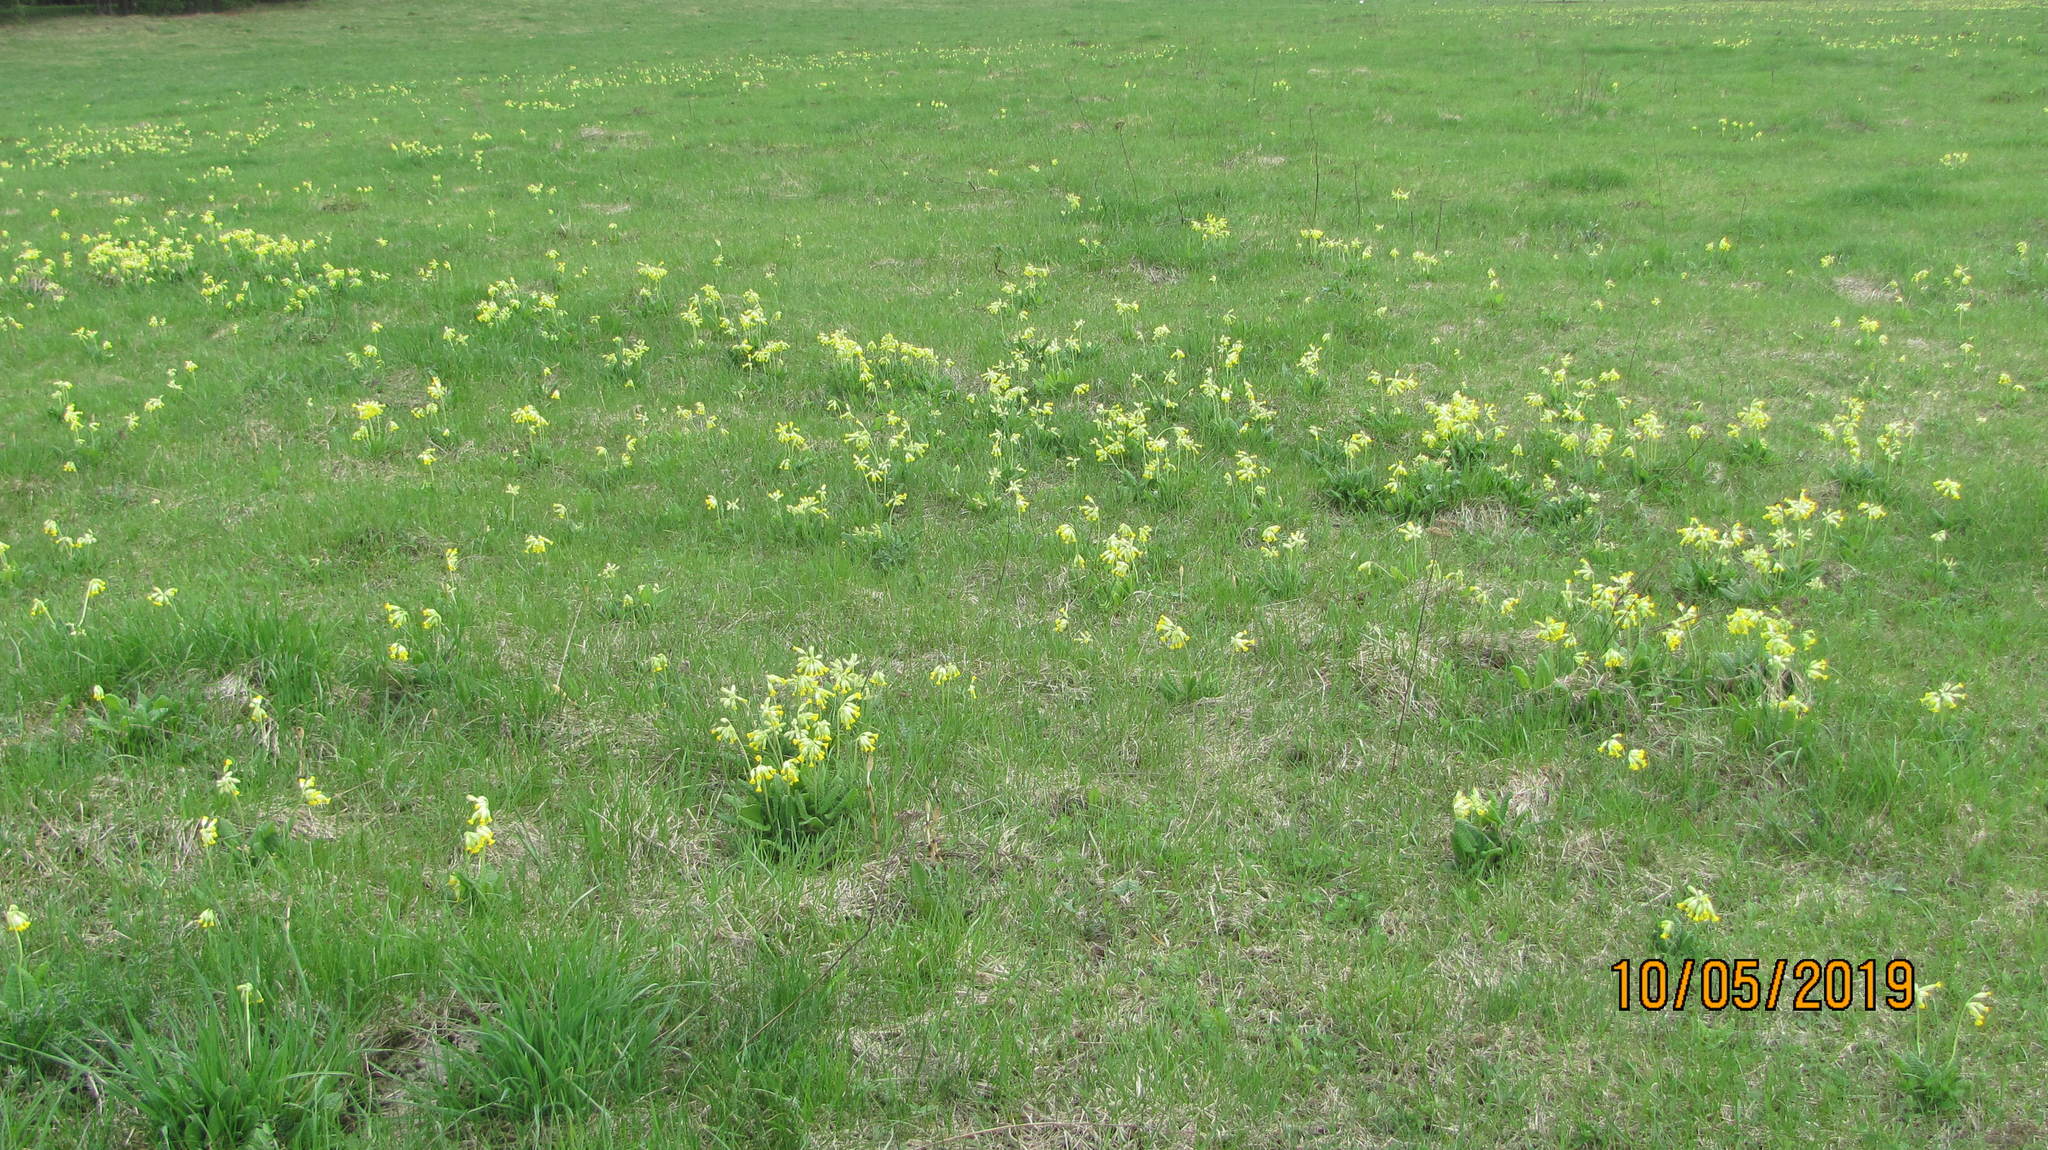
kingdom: Plantae
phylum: Tracheophyta
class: Magnoliopsida
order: Ericales
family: Primulaceae
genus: Primula
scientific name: Primula veris
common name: Cowslip
